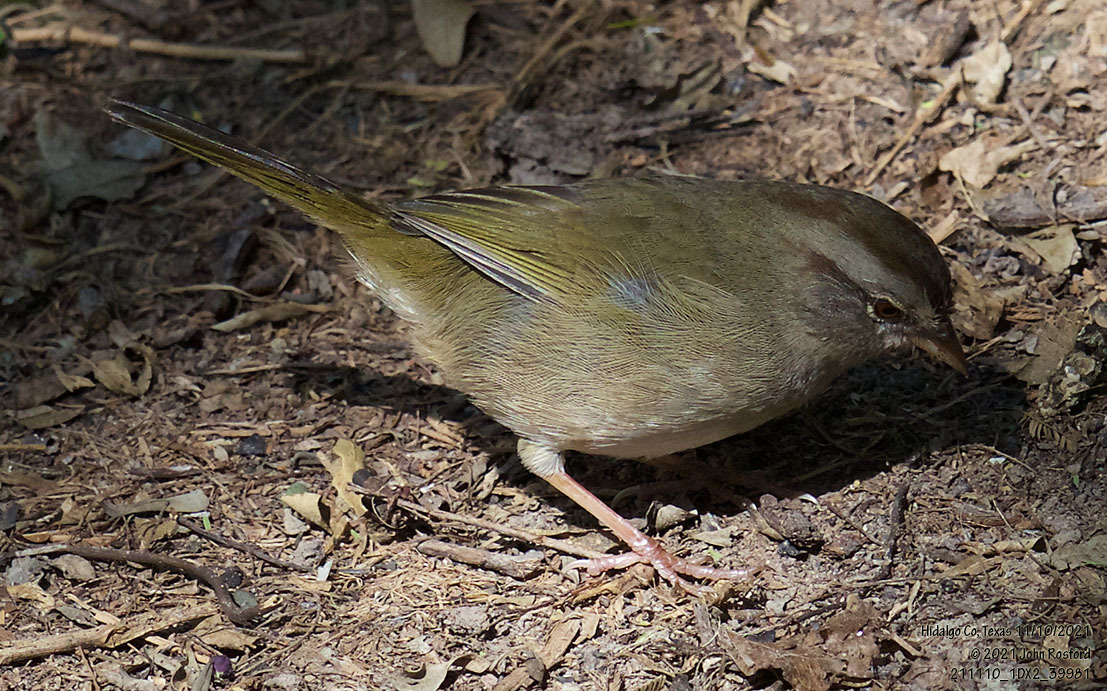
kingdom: Animalia
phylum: Chordata
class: Aves
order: Passeriformes
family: Passerellidae
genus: Arremonops
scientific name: Arremonops rufivirgatus
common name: Olive sparrow
